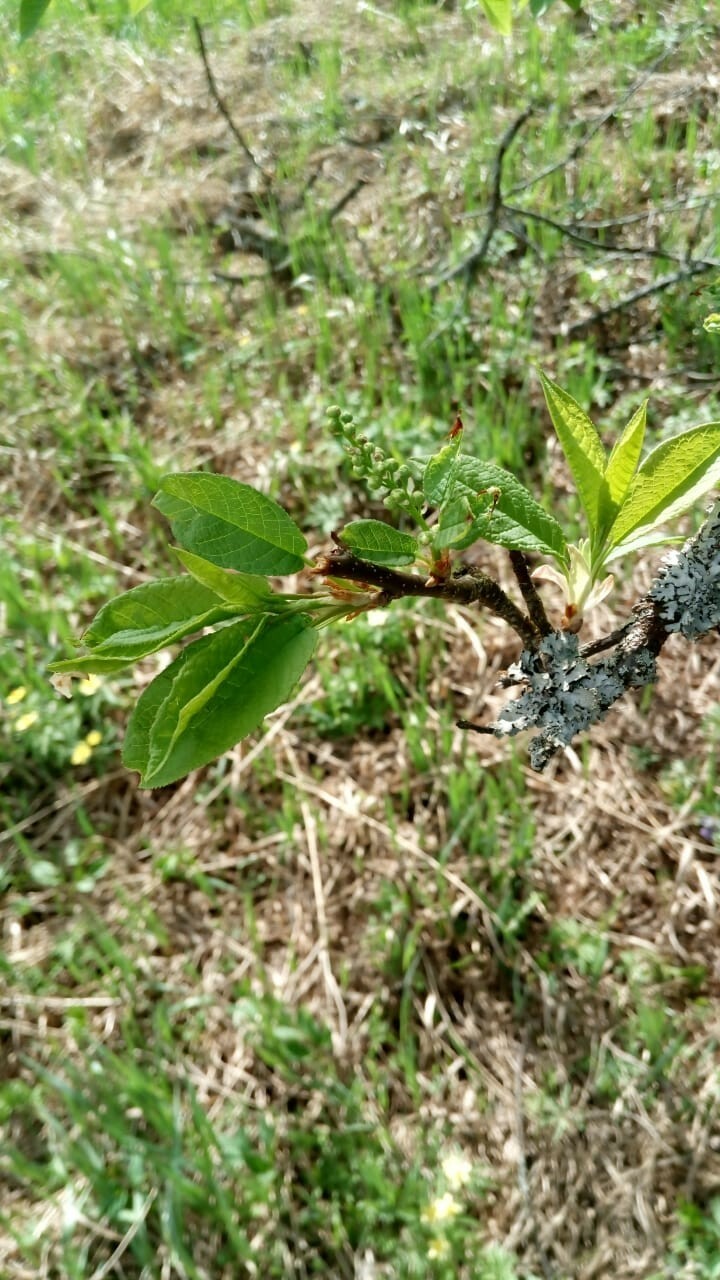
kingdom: Plantae
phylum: Tracheophyta
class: Magnoliopsida
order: Rosales
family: Rosaceae
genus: Prunus
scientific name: Prunus padus
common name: Bird cherry
